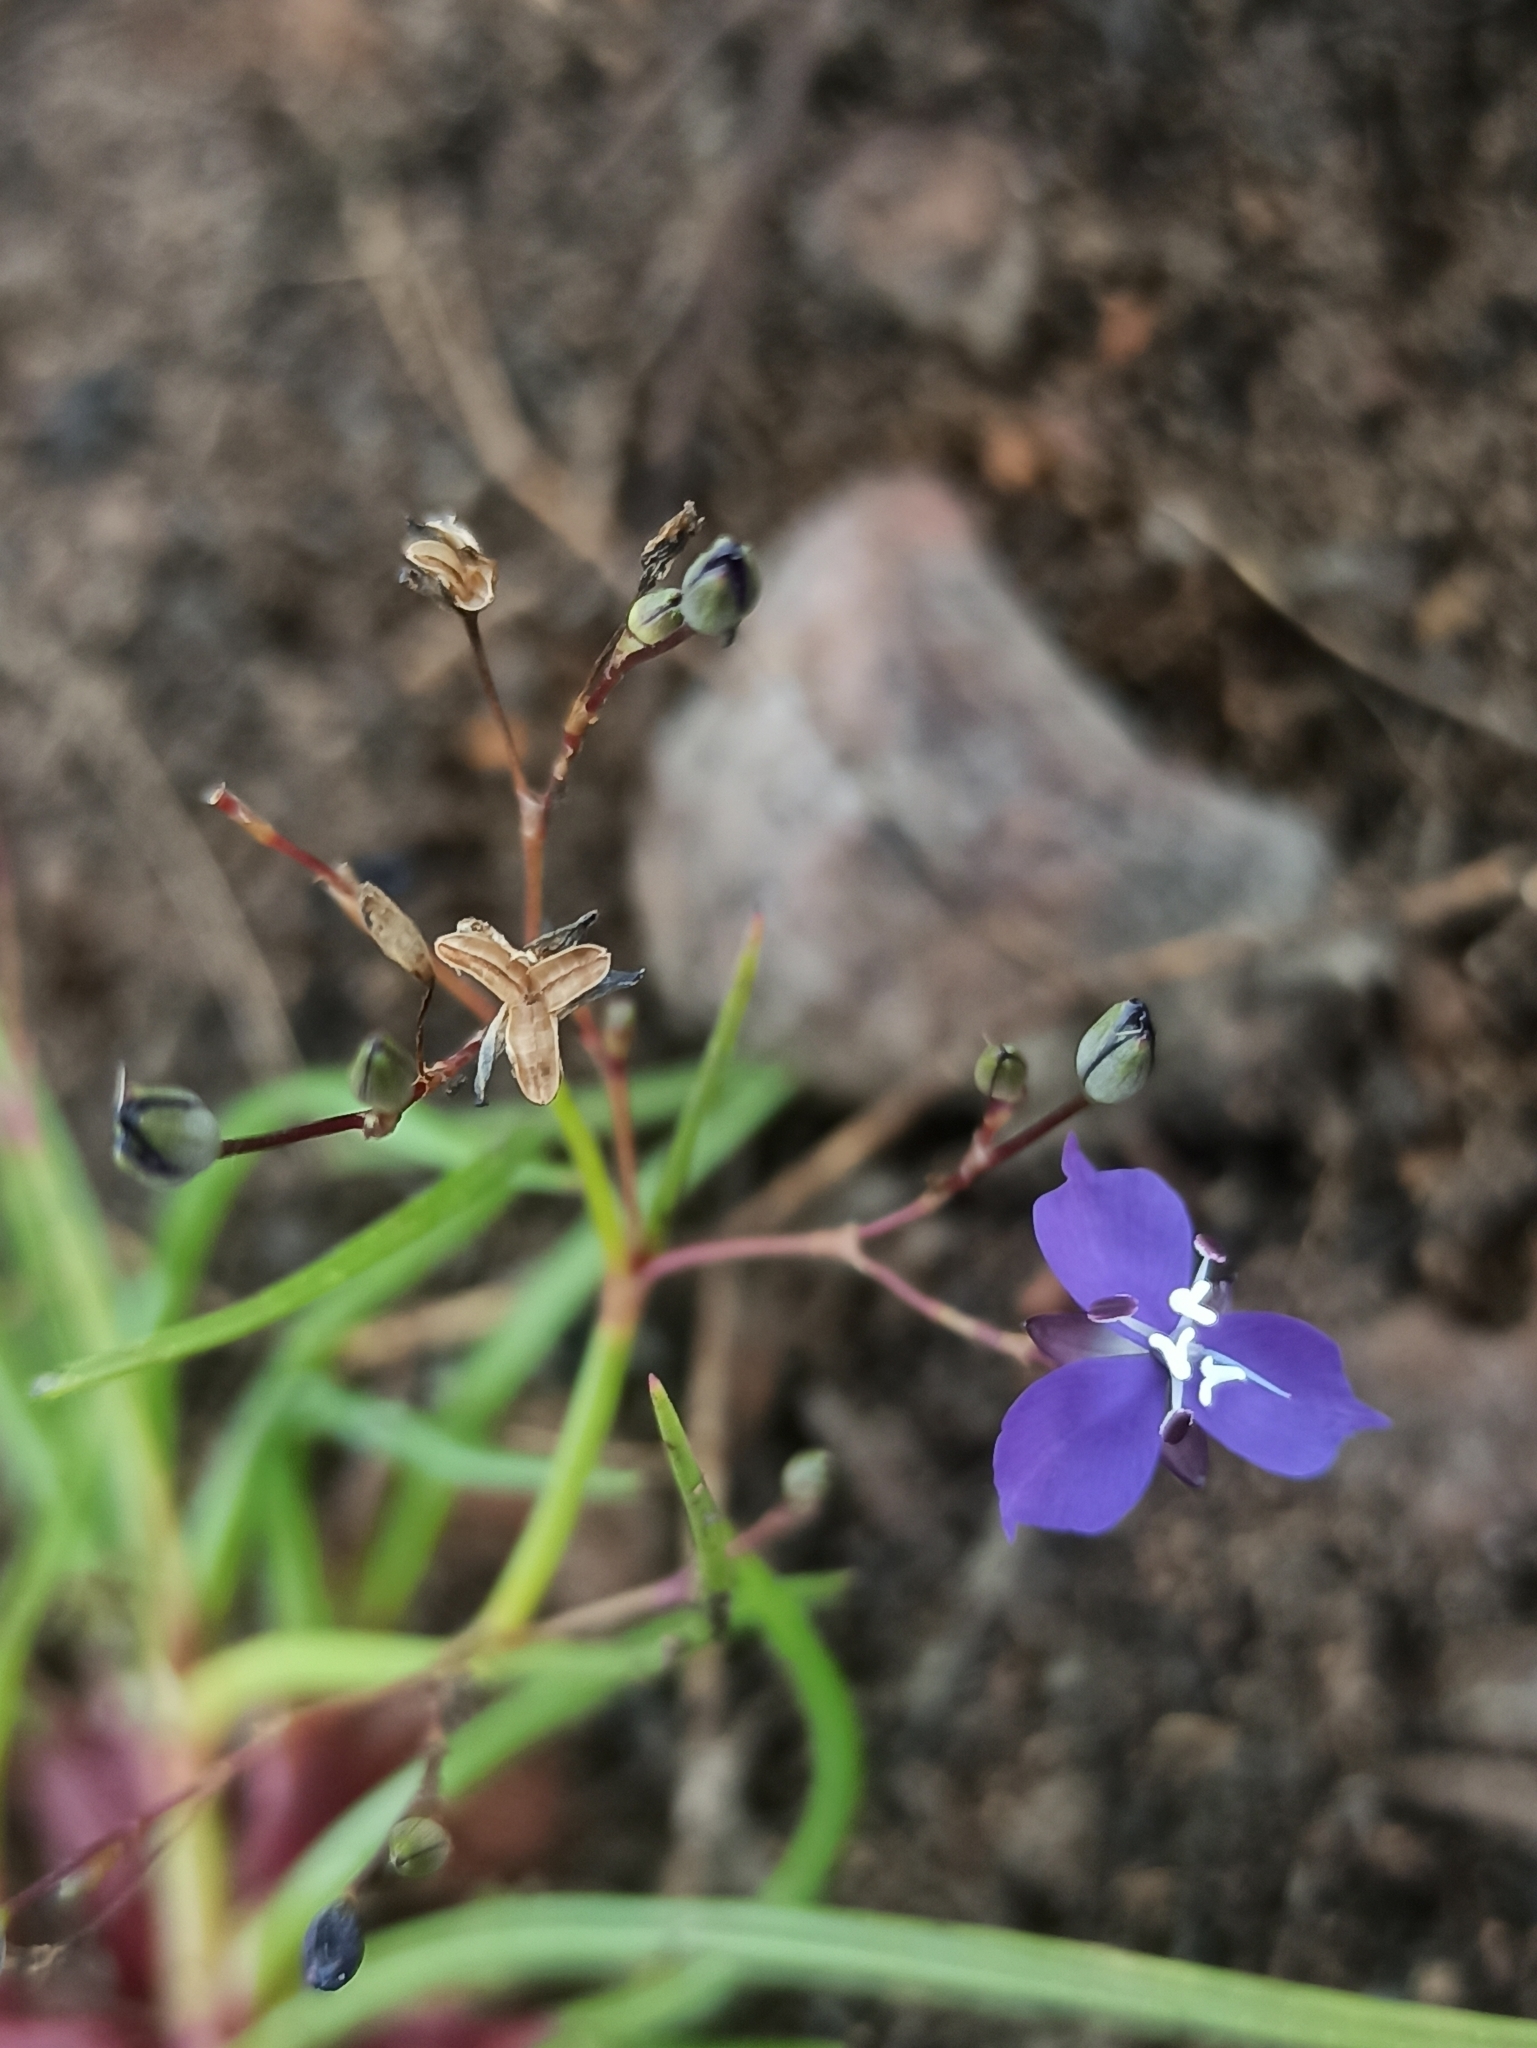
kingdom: Plantae
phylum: Tracheophyta
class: Liliopsida
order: Commelinales
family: Commelinaceae
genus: Murdannia
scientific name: Murdannia semiteres
